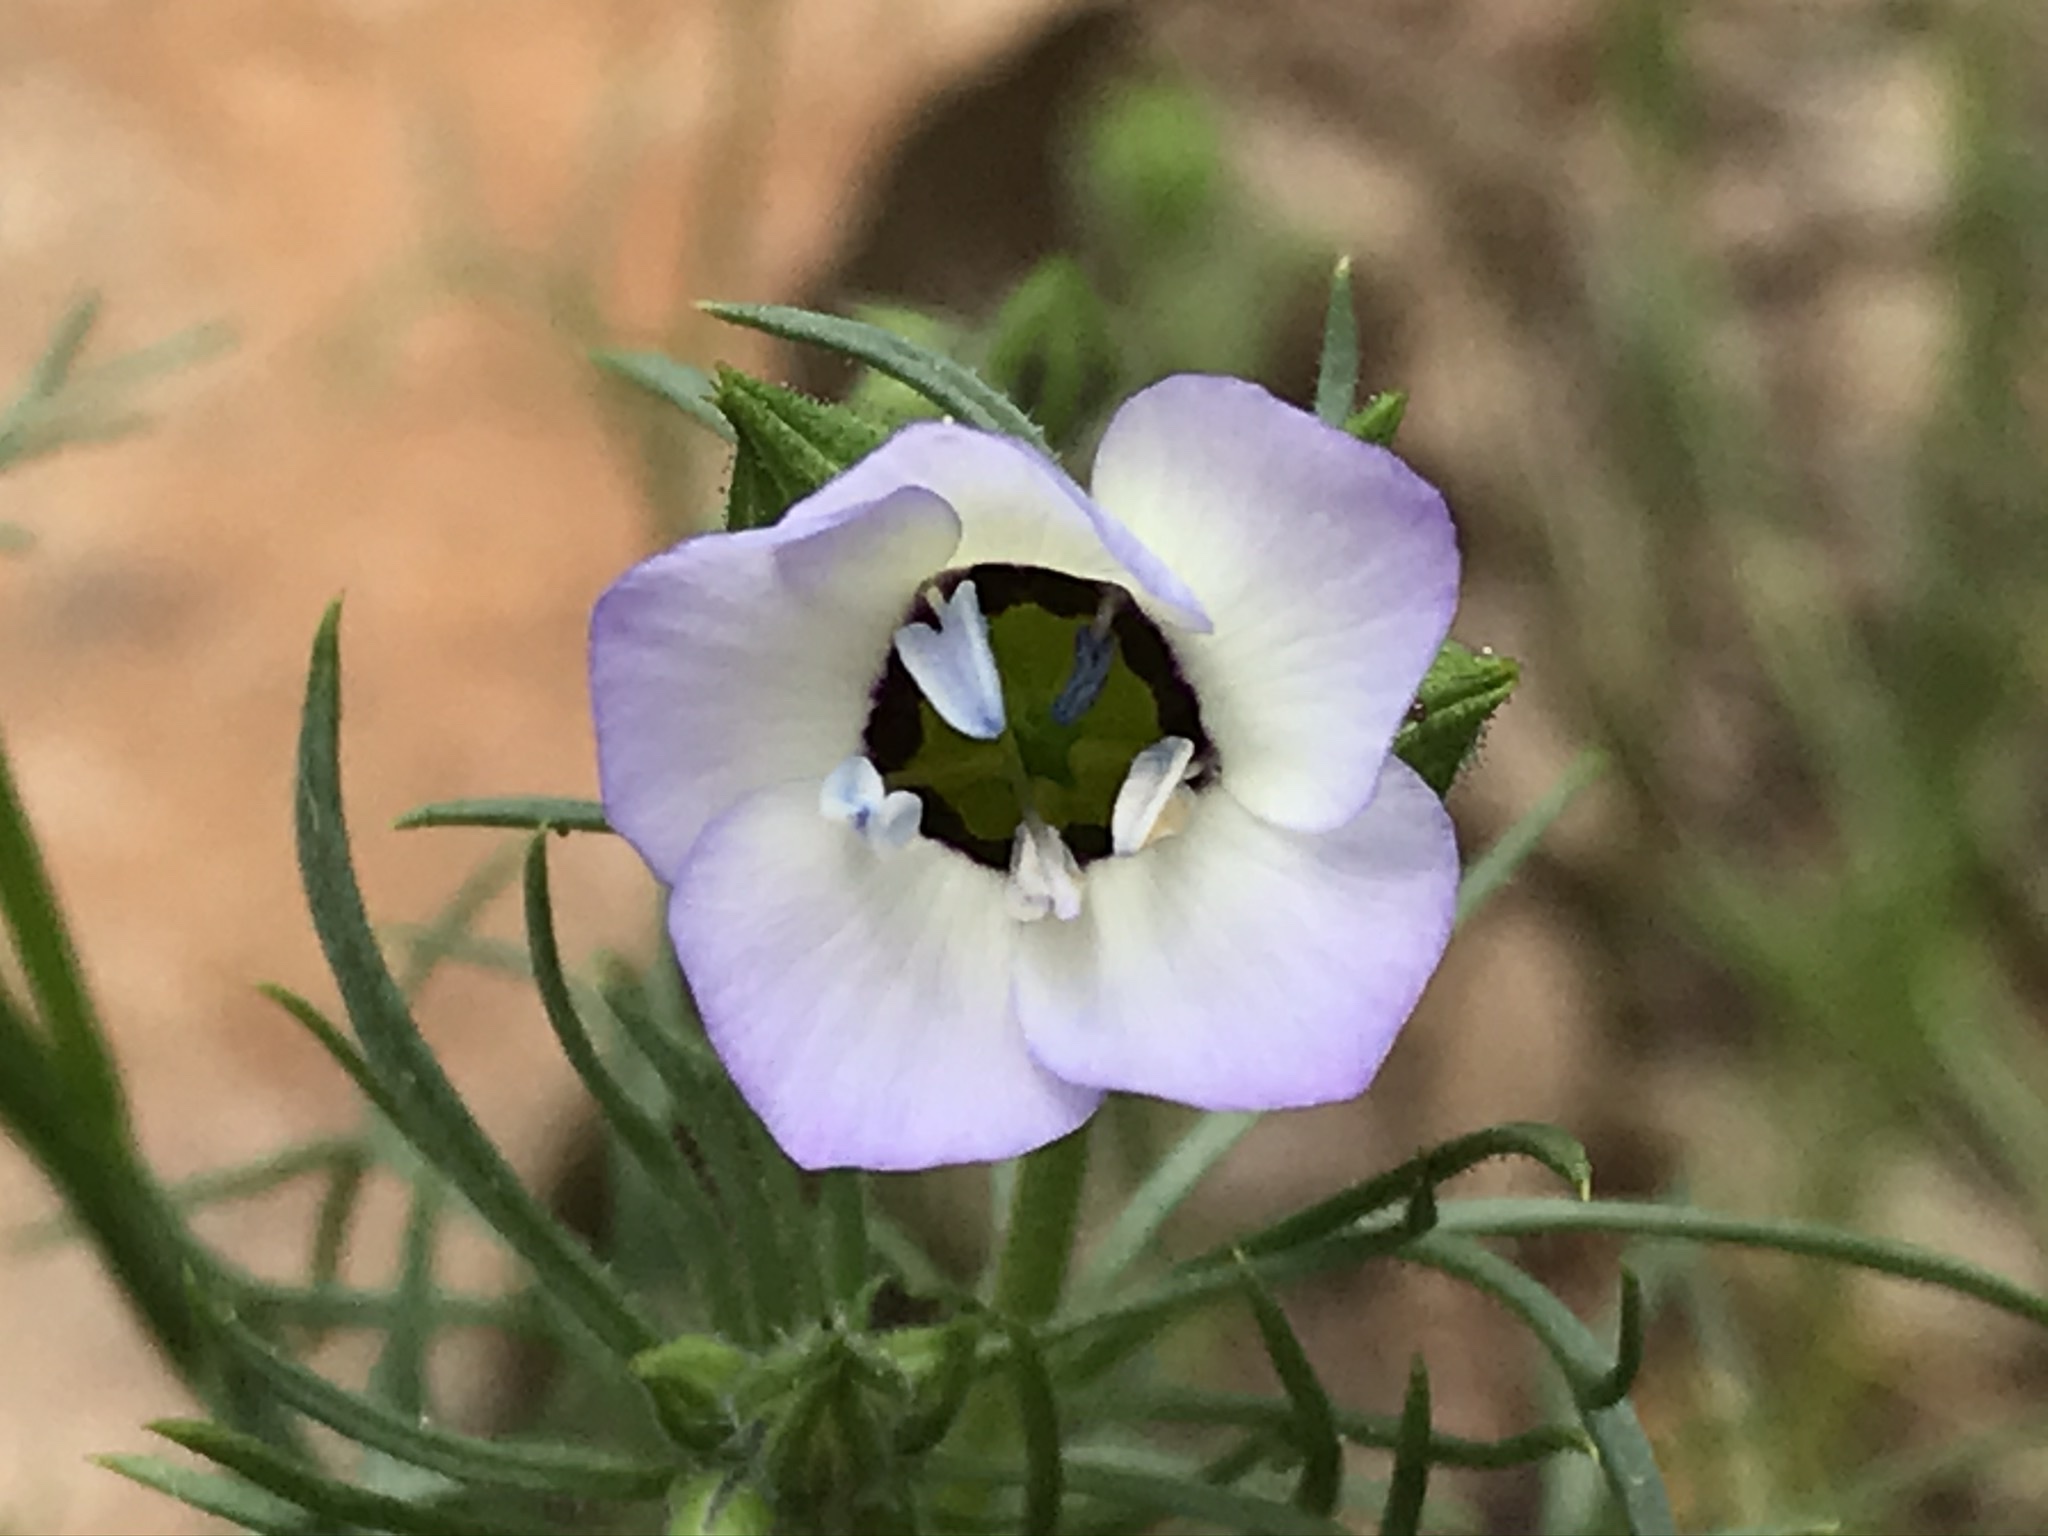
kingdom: Plantae
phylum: Tracheophyta
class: Magnoliopsida
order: Ericales
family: Polemoniaceae
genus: Gilia
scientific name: Gilia tricolor
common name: Bird's-eyes
